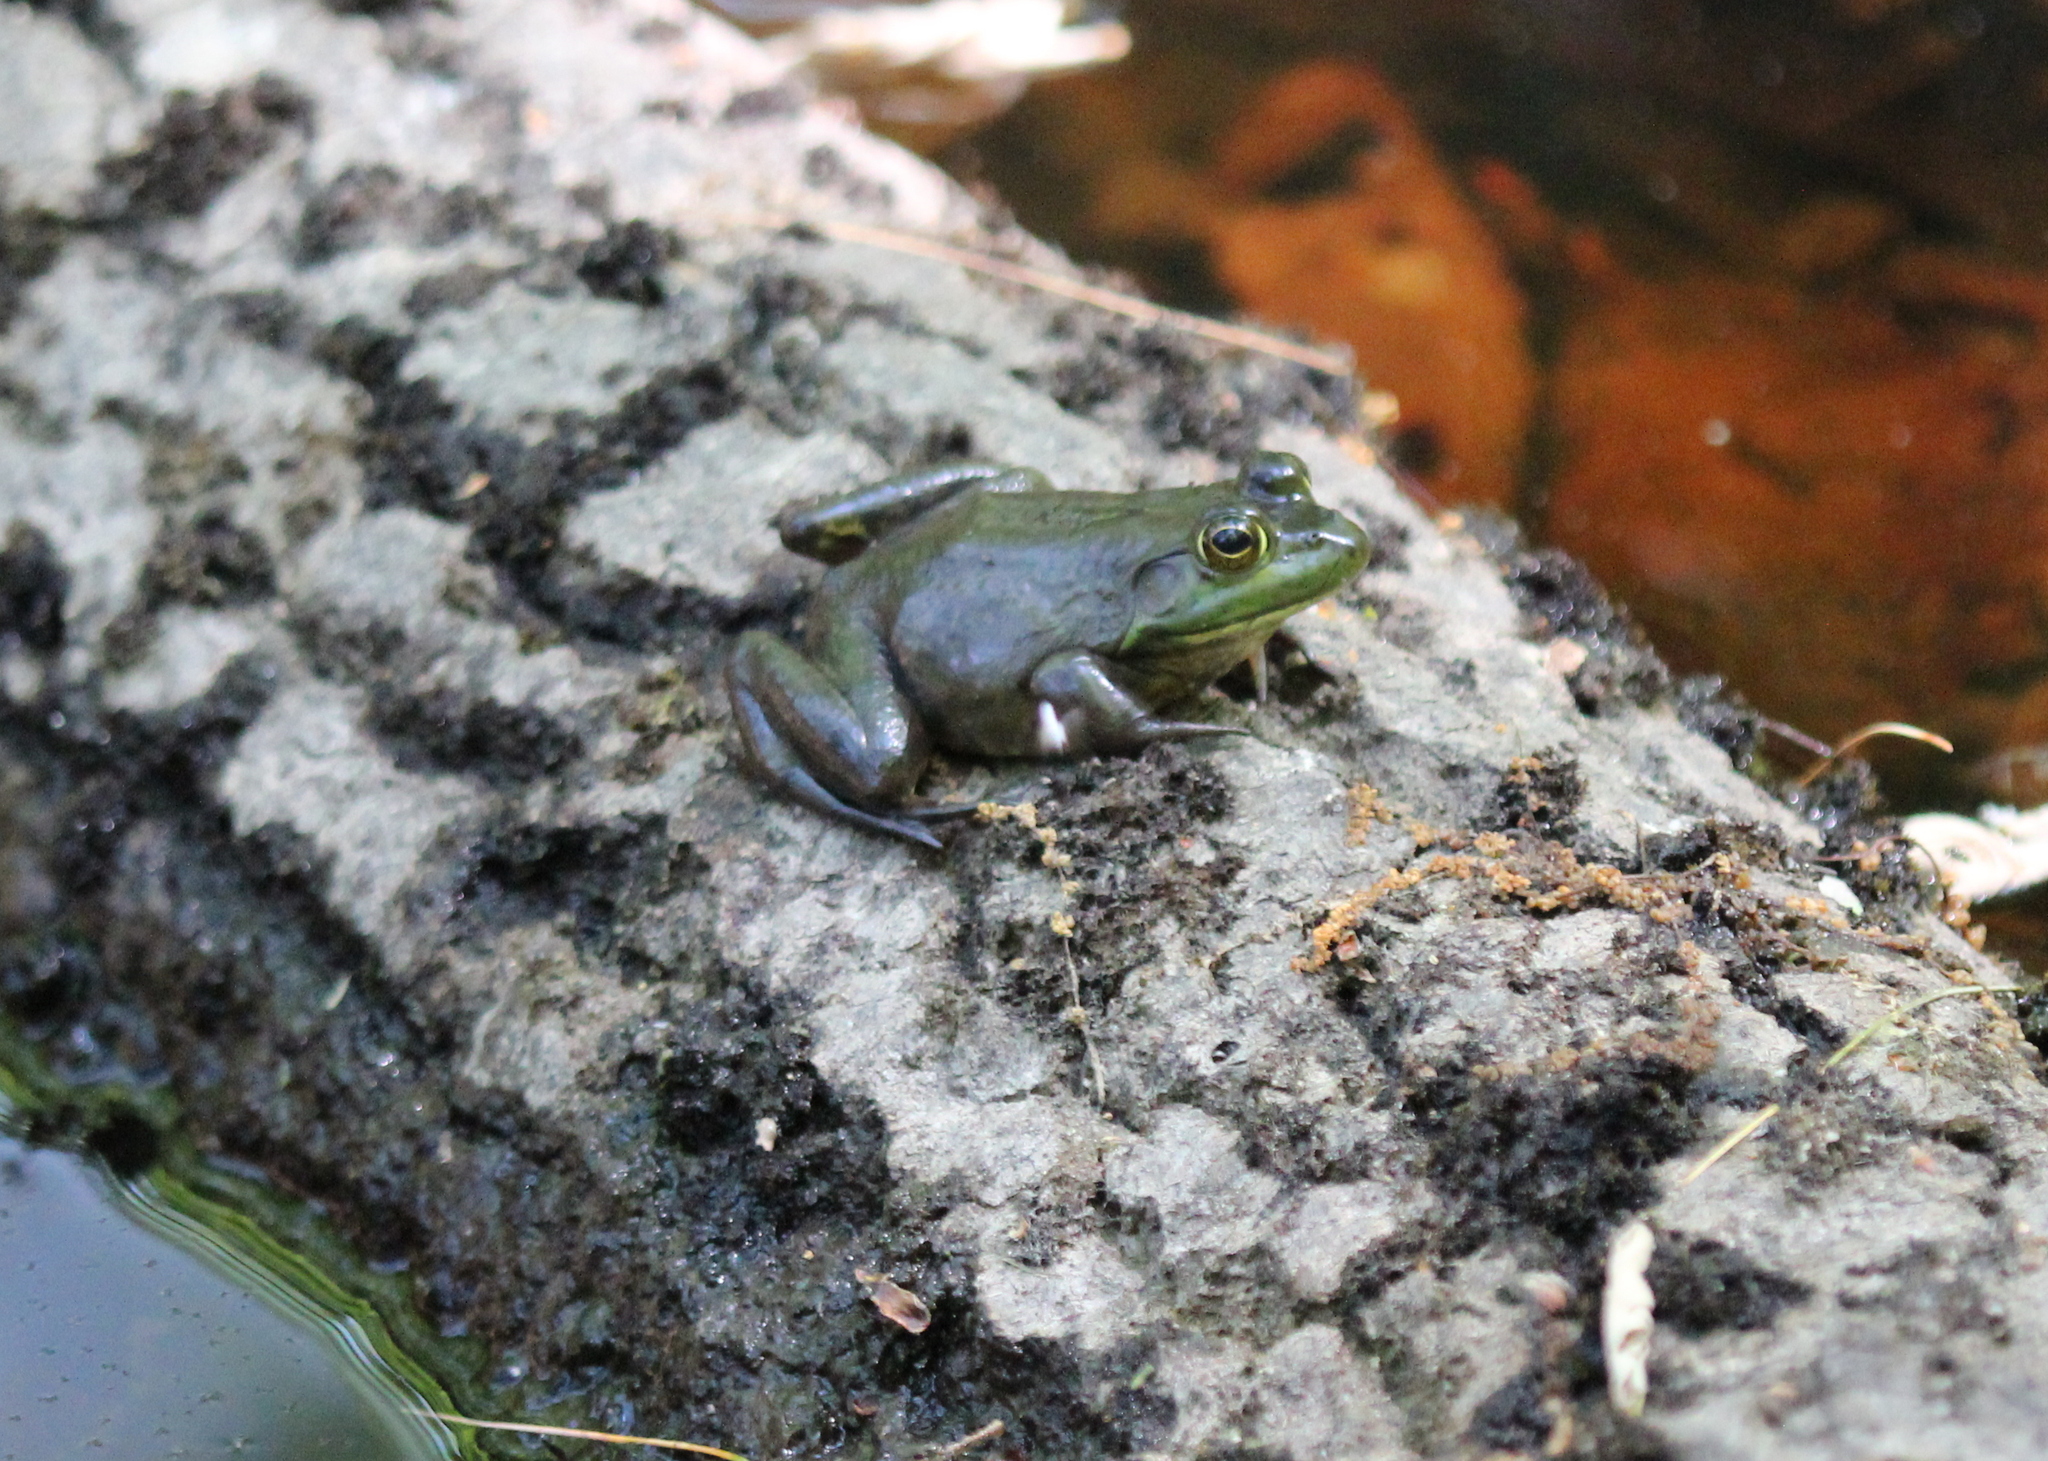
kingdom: Animalia
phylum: Chordata
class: Amphibia
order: Anura
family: Ranidae
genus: Lithobates
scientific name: Lithobates catesbeianus
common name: American bullfrog
